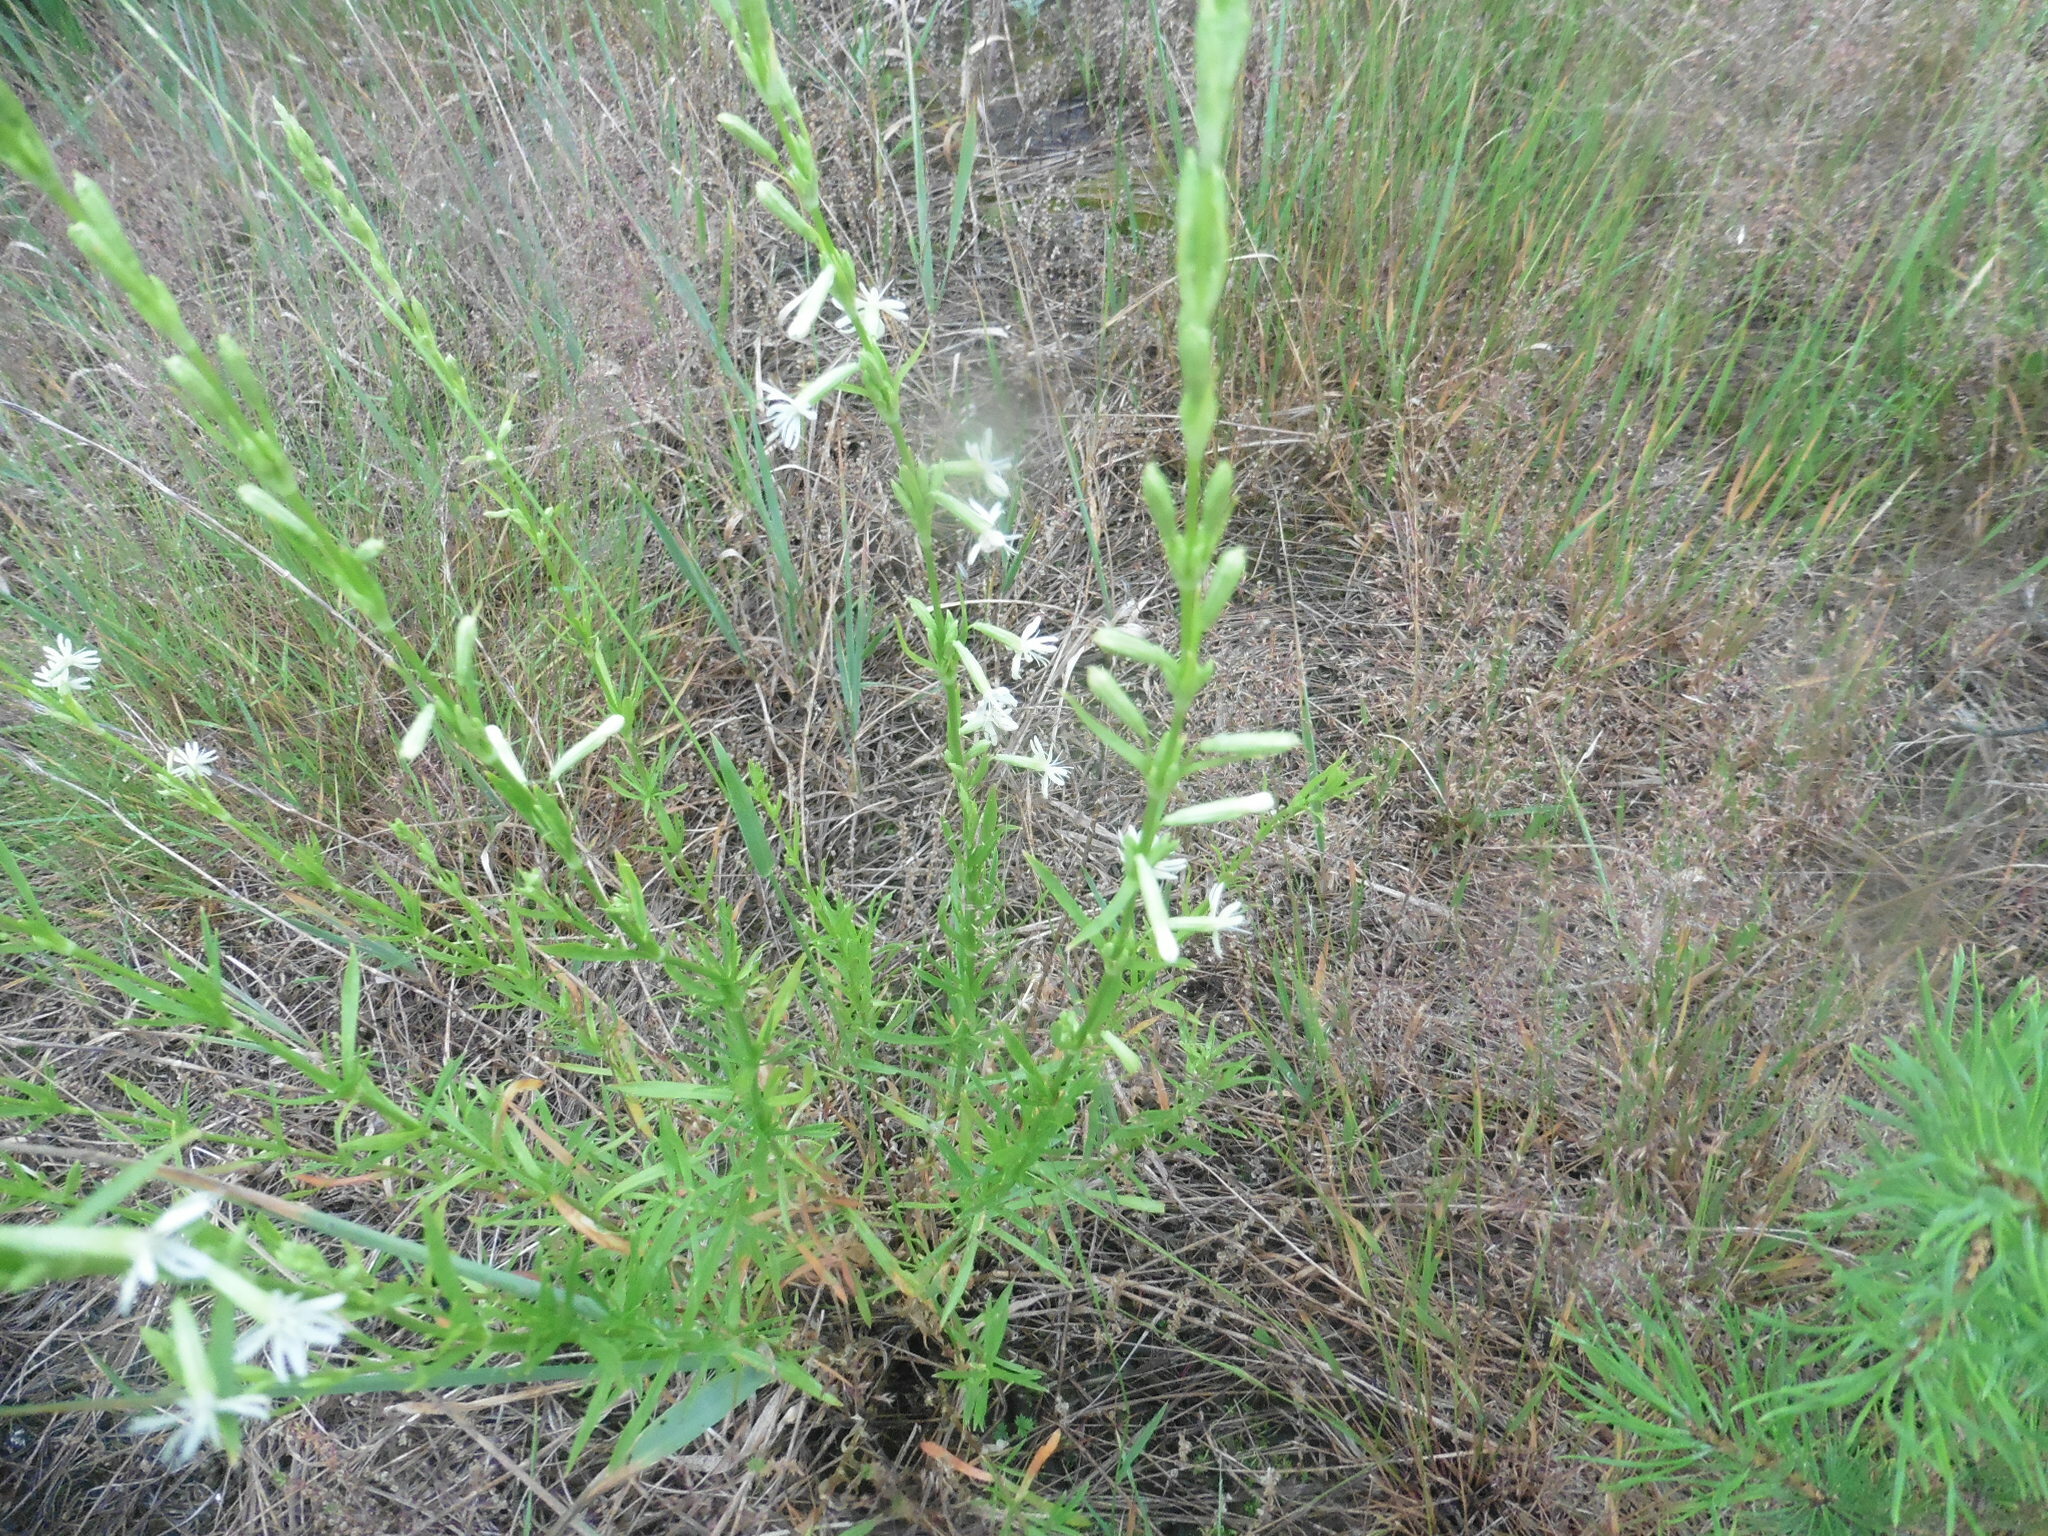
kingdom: Plantae
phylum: Tracheophyta
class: Magnoliopsida
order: Caryophyllales
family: Caryophyllaceae
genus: Silene
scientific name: Silene tatarica
